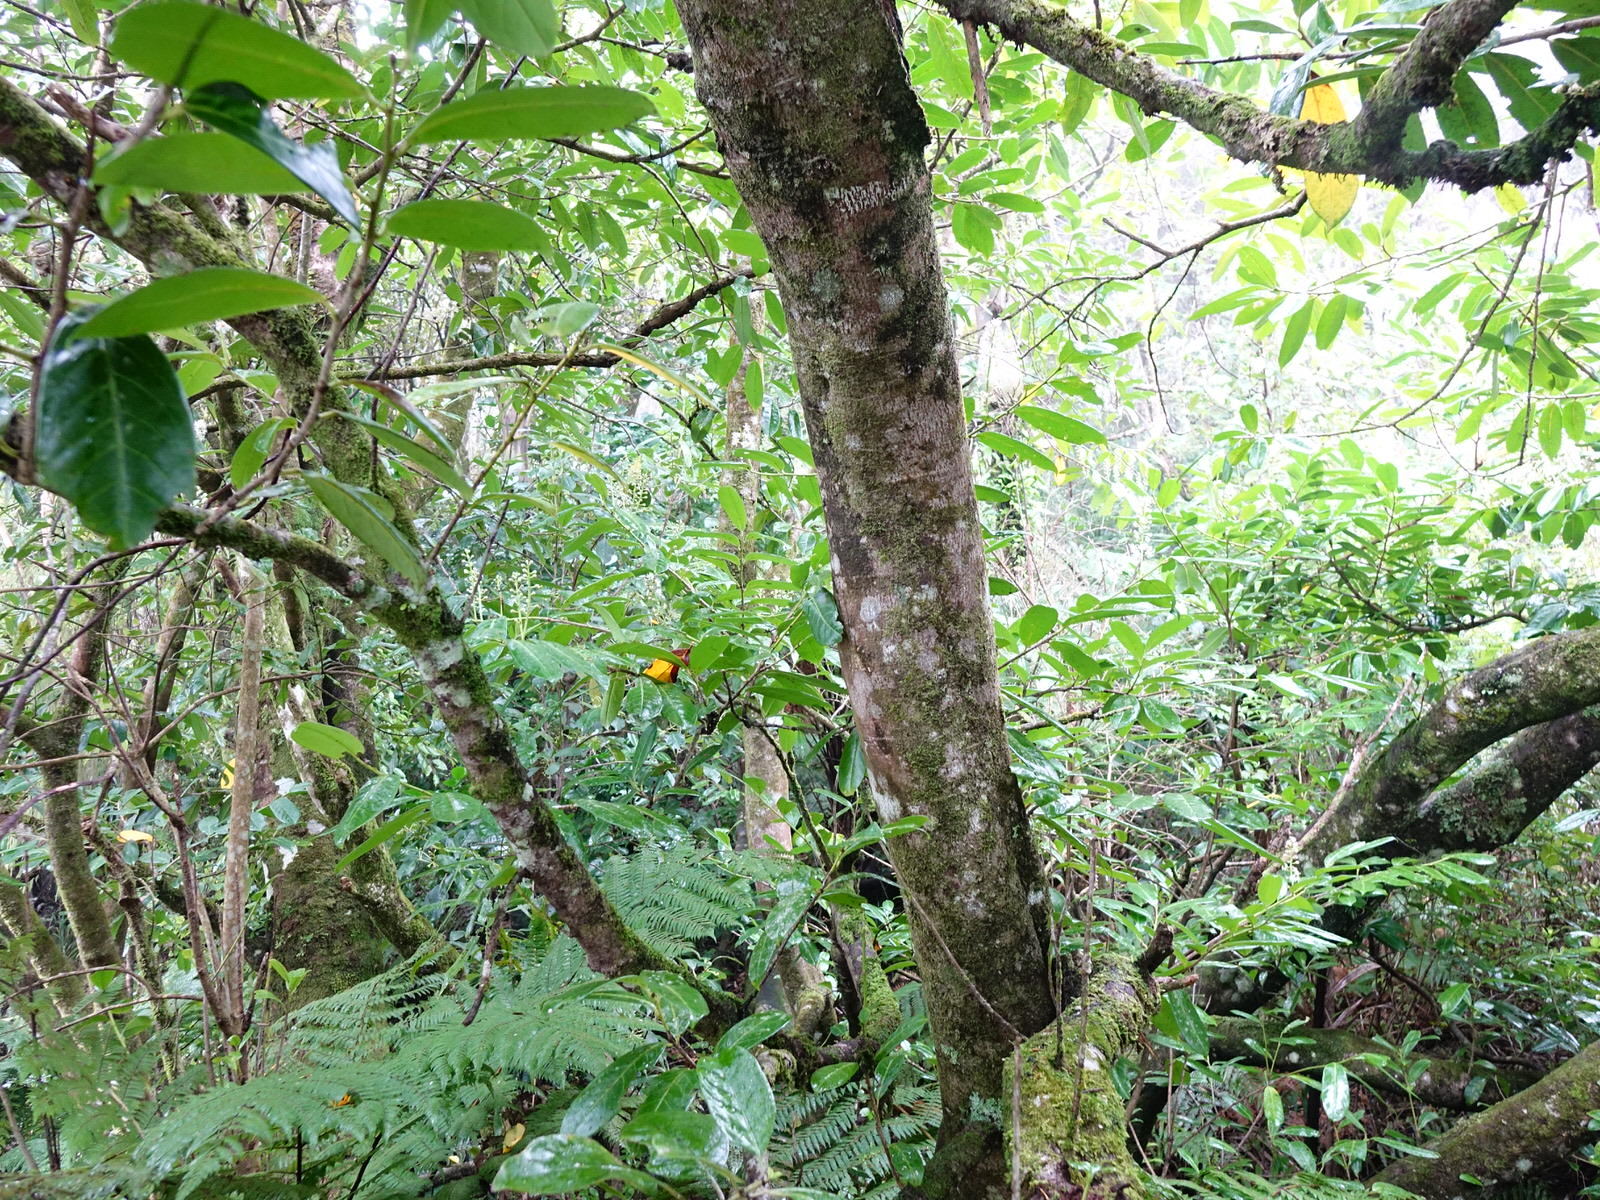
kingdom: Plantae
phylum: Tracheophyta
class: Magnoliopsida
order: Rosales
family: Rosaceae
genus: Prunus
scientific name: Prunus laurocerasus
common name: Cherry laurel
